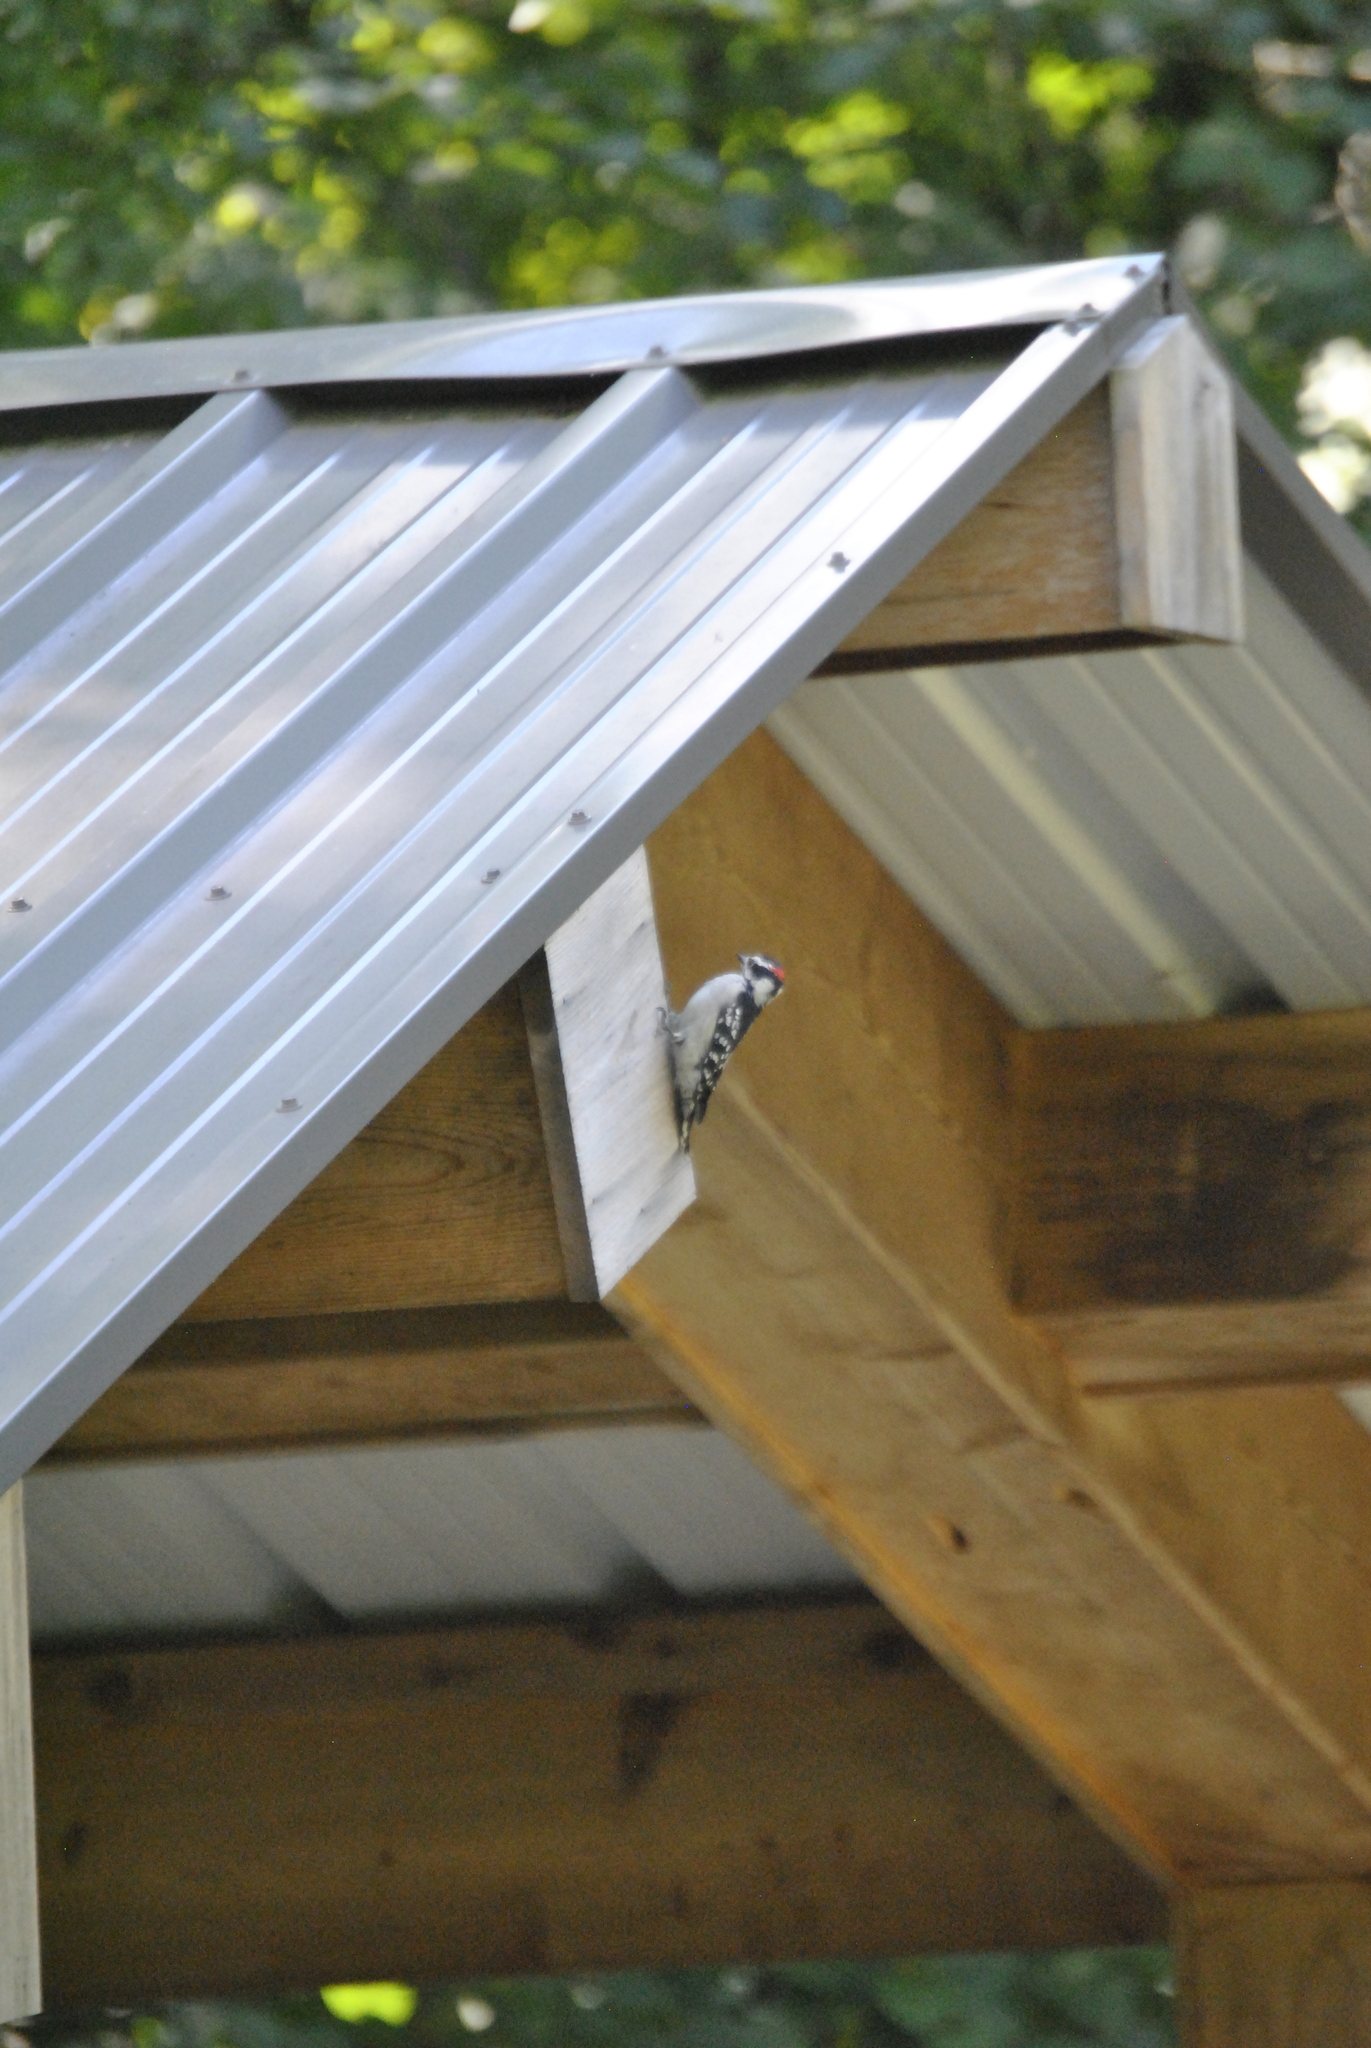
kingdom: Animalia
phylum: Chordata
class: Aves
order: Piciformes
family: Picidae
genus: Dryobates
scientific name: Dryobates pubescens
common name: Downy woodpecker
